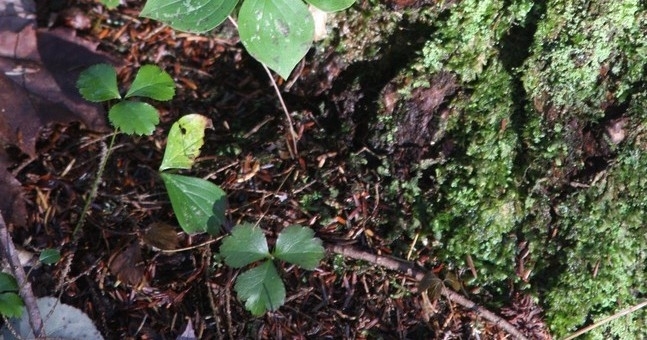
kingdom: Plantae
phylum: Tracheophyta
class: Magnoliopsida
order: Ranunculales
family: Ranunculaceae
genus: Coptis
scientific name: Coptis trifolia
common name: Canker-root
